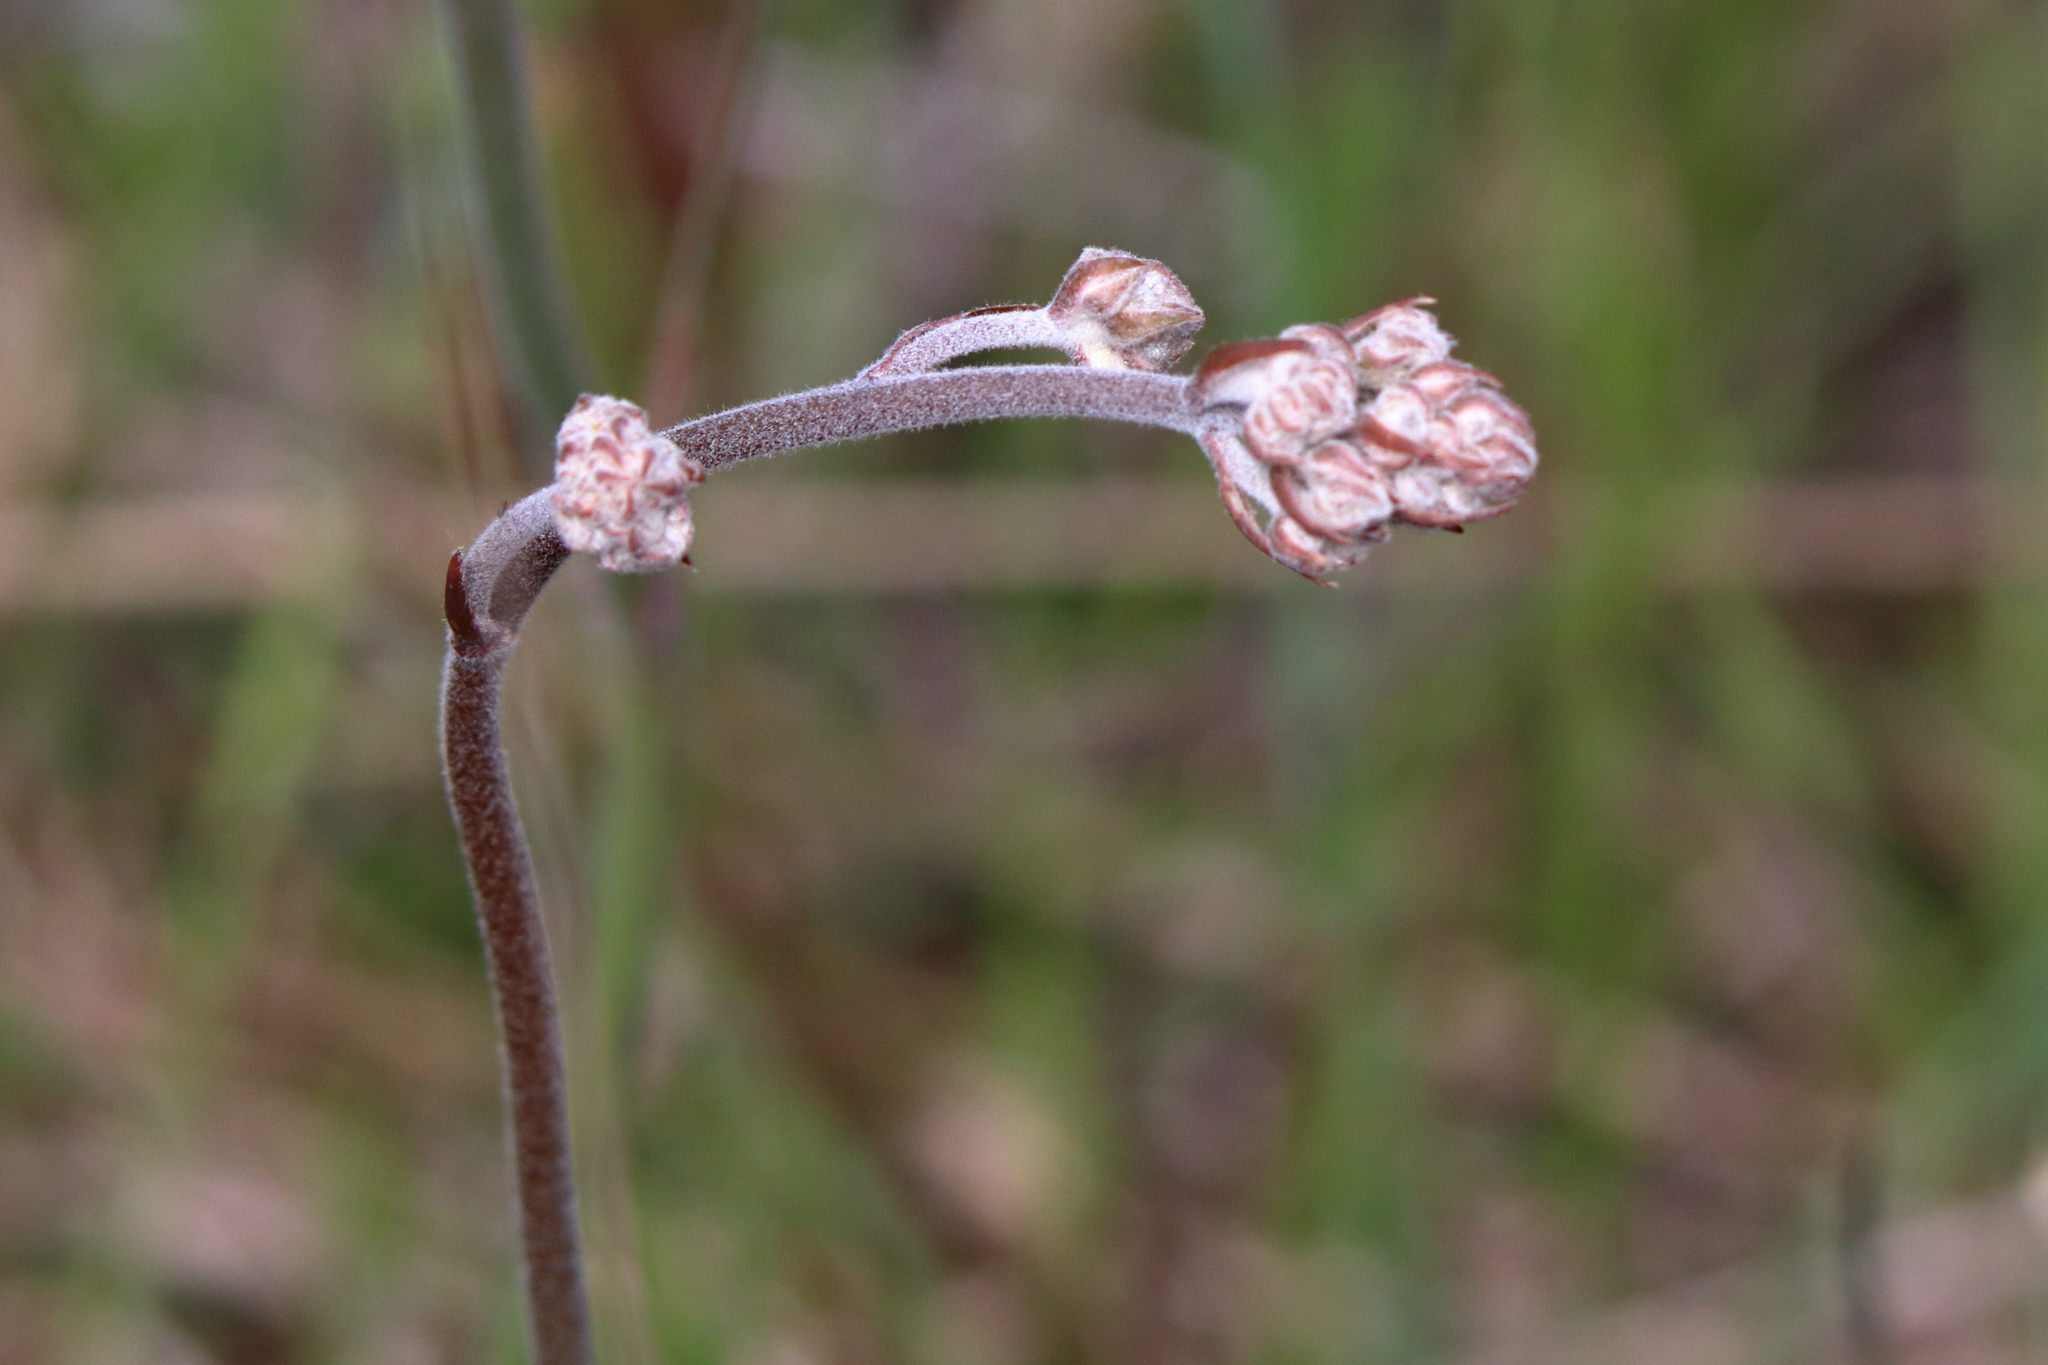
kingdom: Plantae
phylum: Tracheophyta
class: Liliopsida
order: Dioscoreales
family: Nartheciaceae
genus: Lophiola
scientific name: Lophiola aurea
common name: Golden-crest
